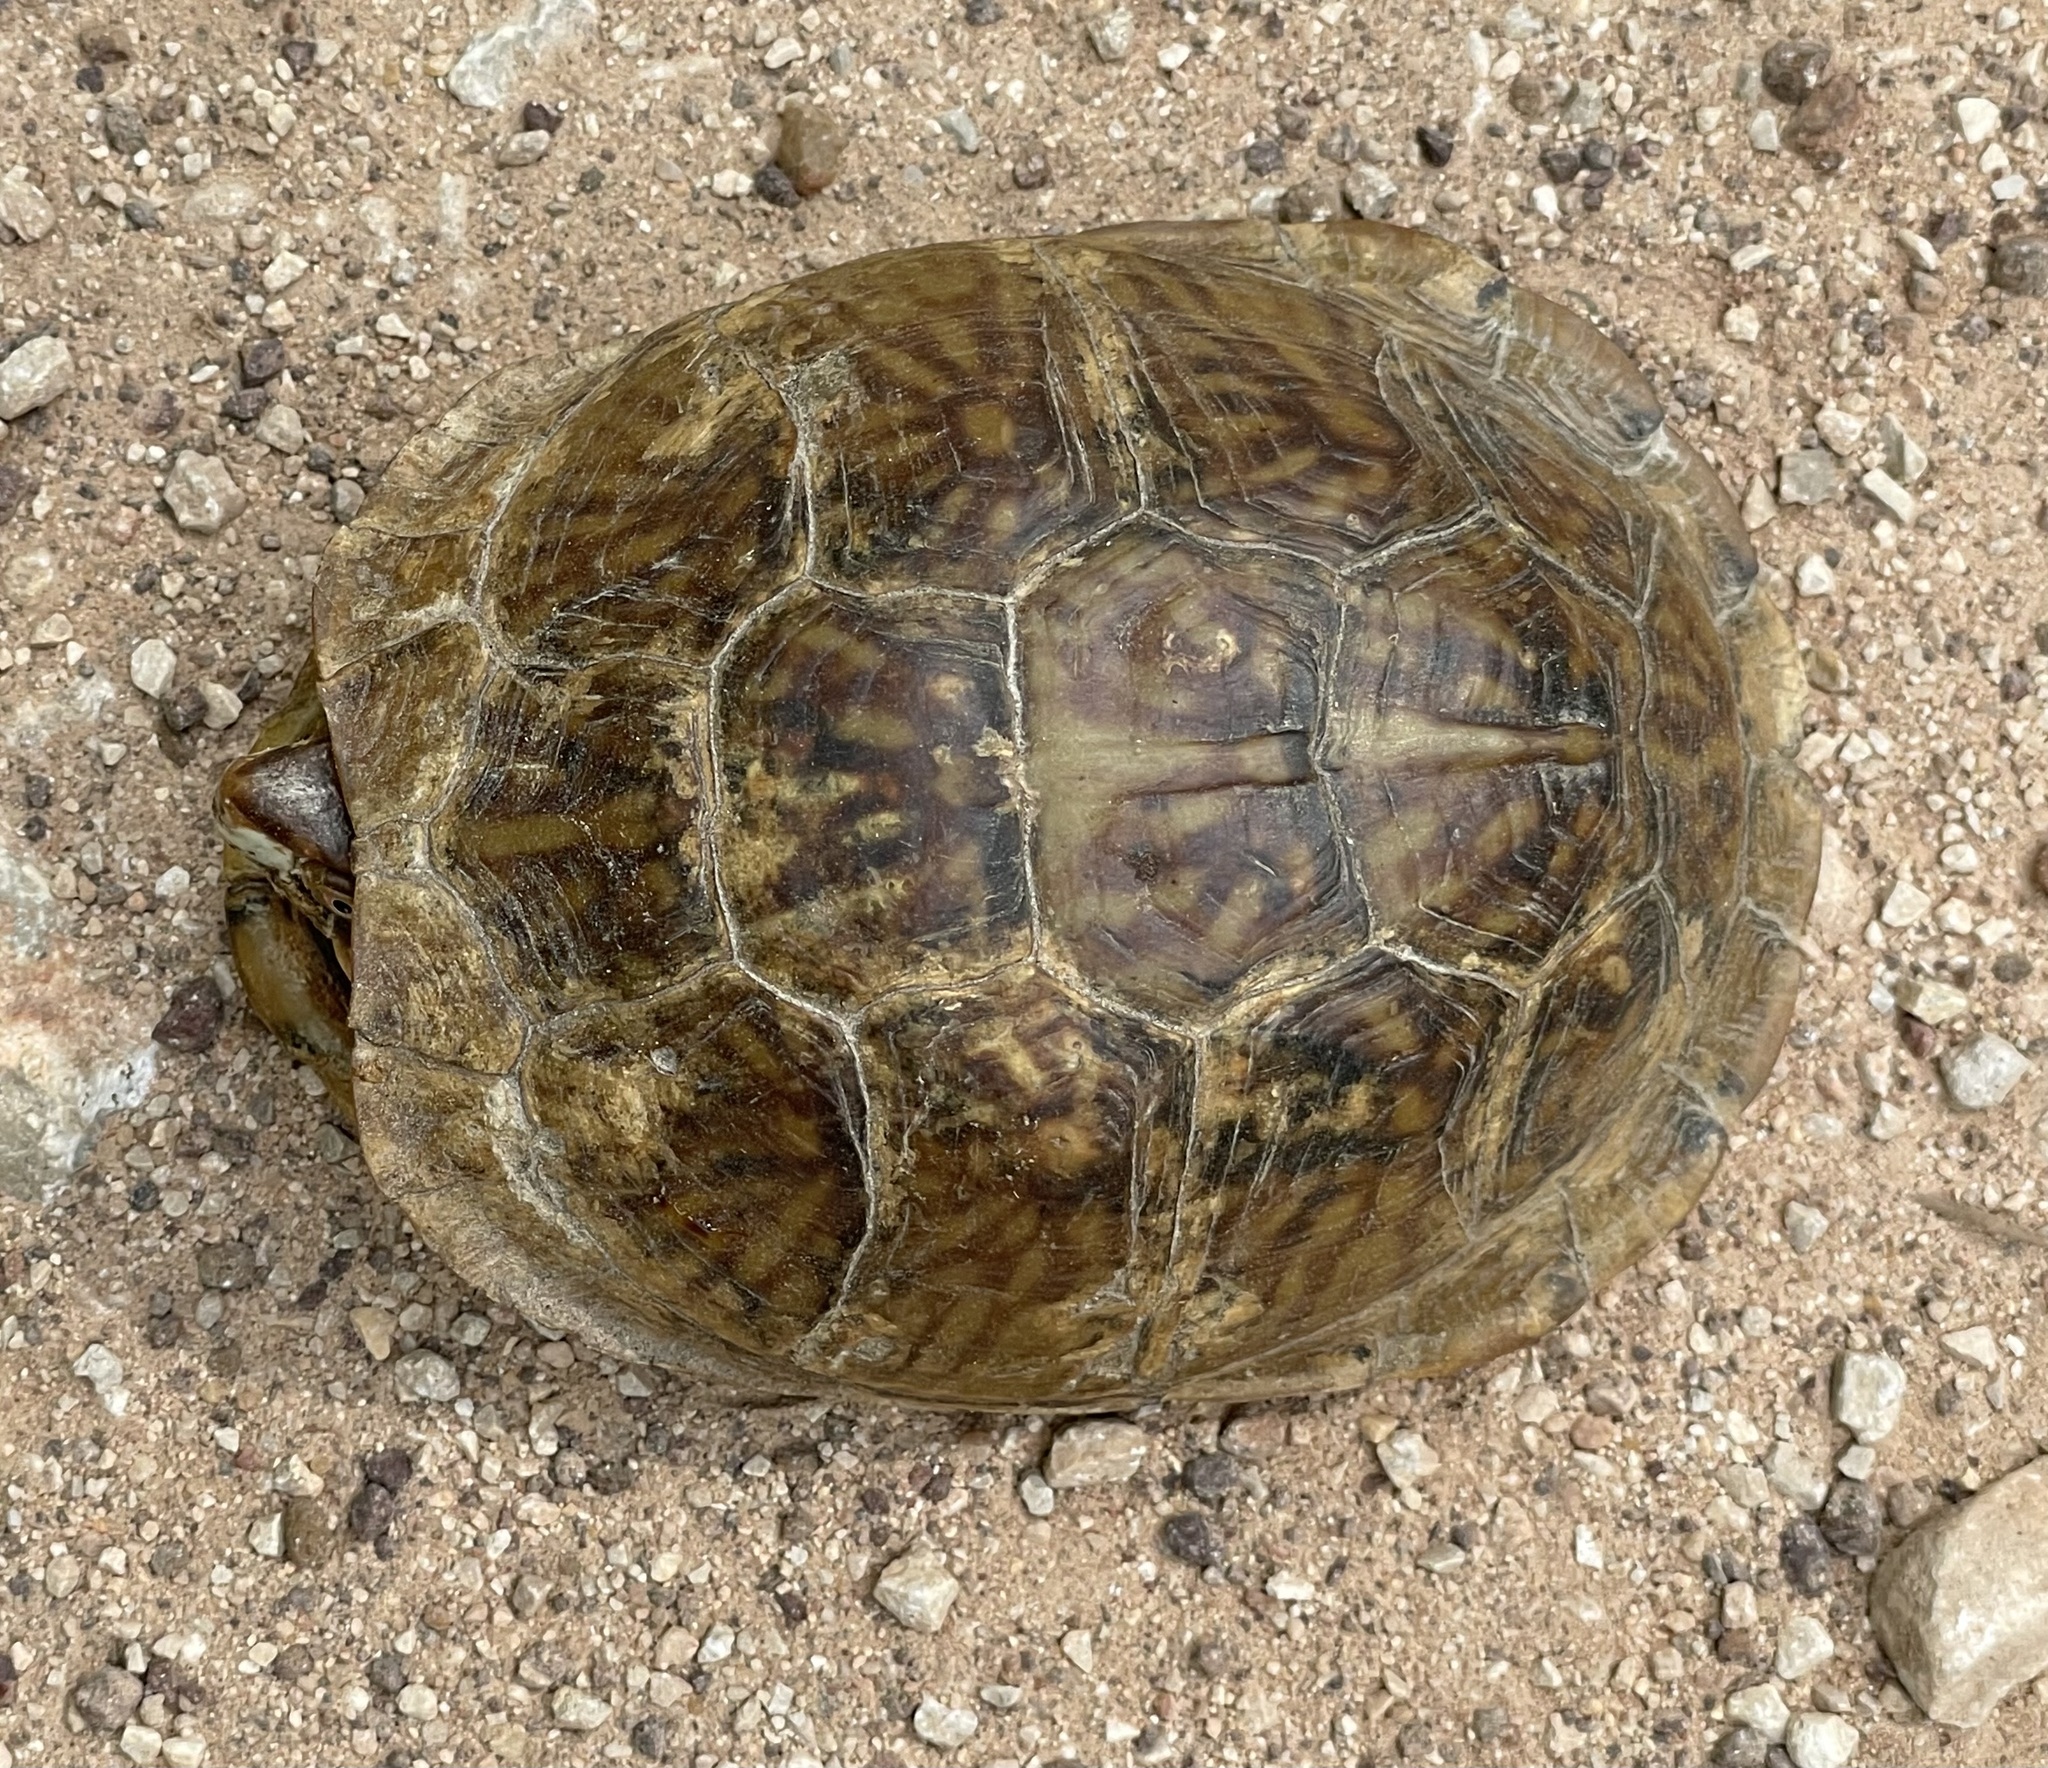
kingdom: Animalia
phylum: Chordata
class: Testudines
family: Emydidae
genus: Terrapene
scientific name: Terrapene carolina
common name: Common box turtle
